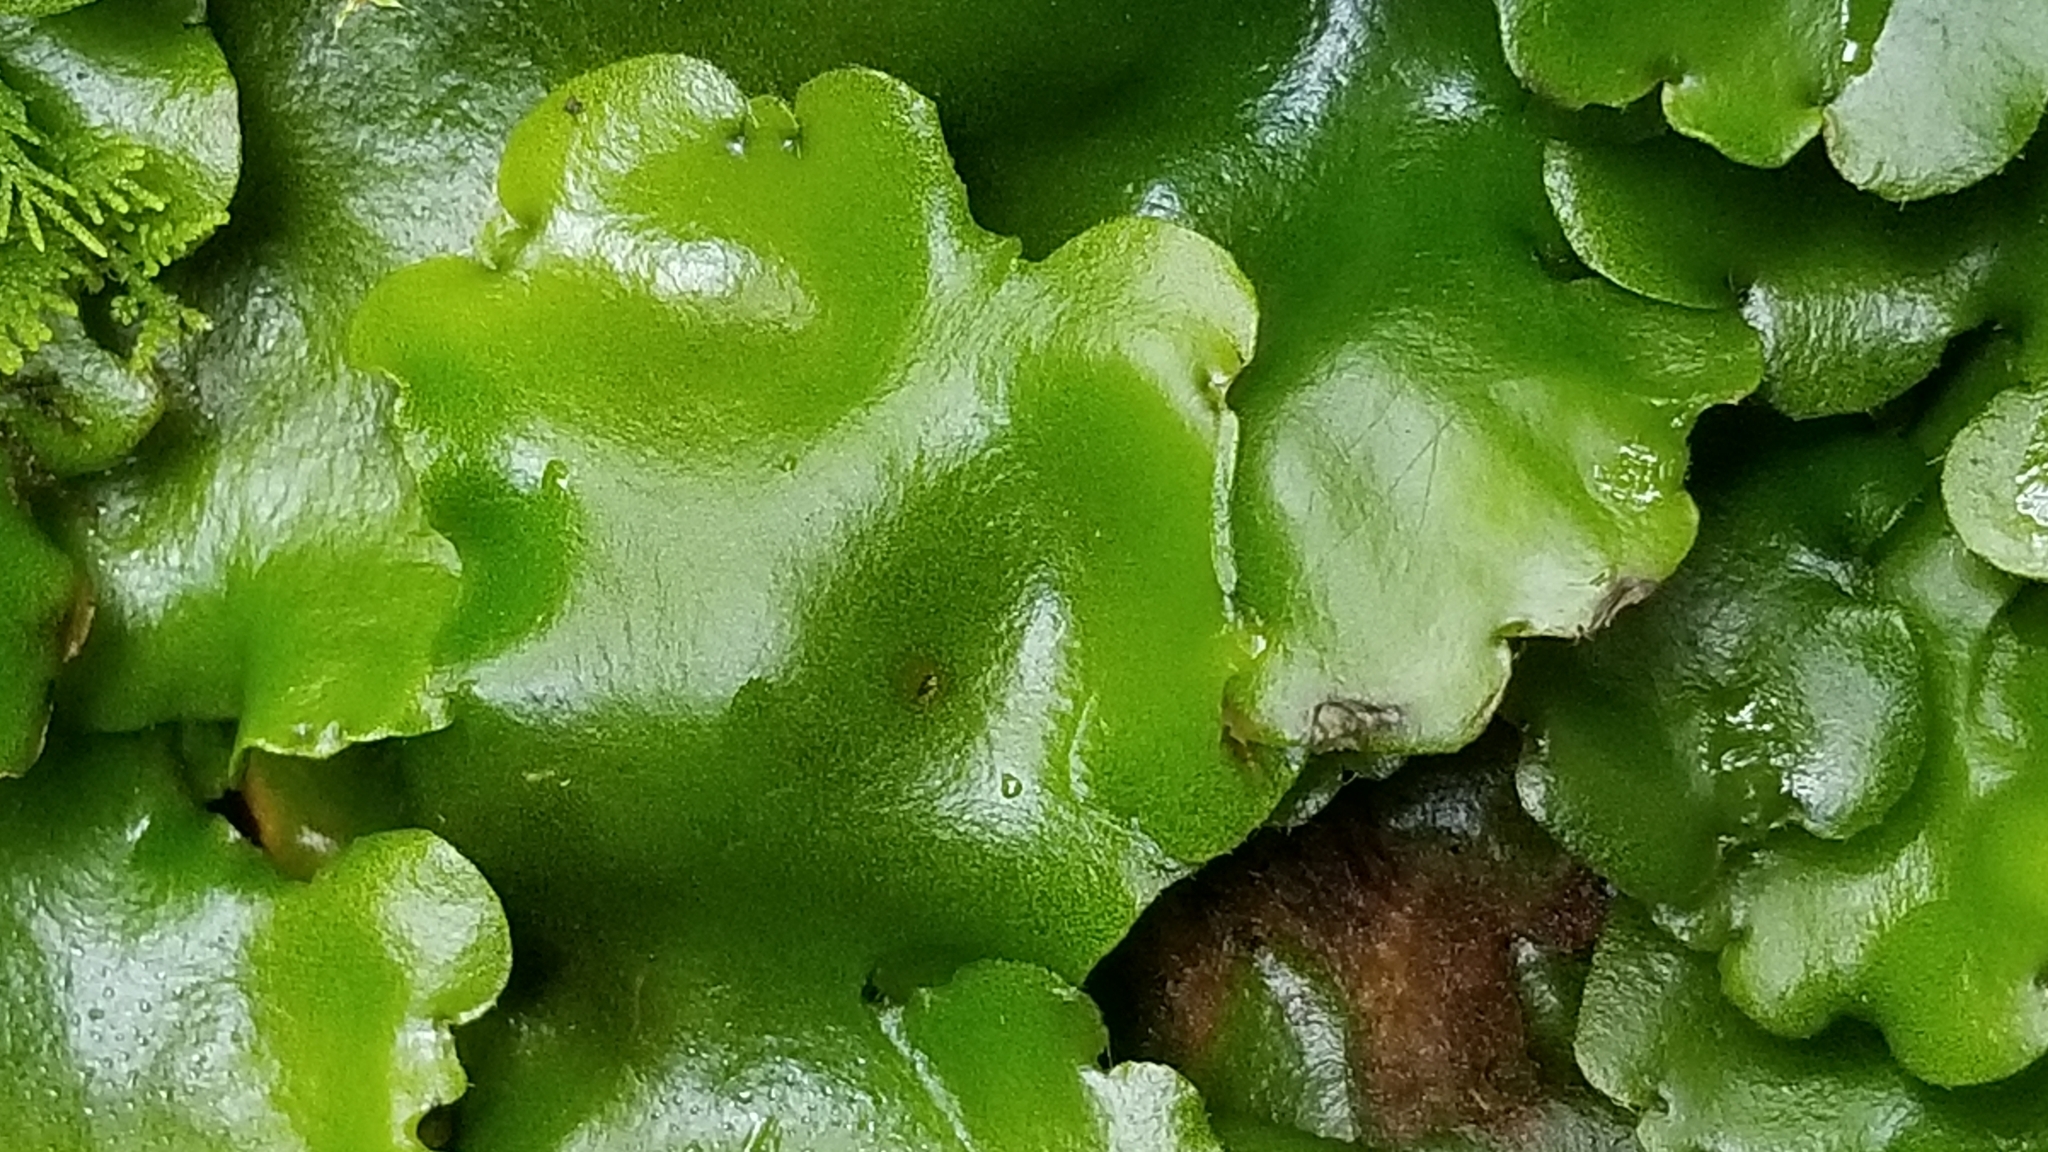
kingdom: Plantae
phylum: Marchantiophyta
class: Marchantiopsida
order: Marchantiales
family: Monocleaceae
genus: Monoclea
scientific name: Monoclea forsteri
